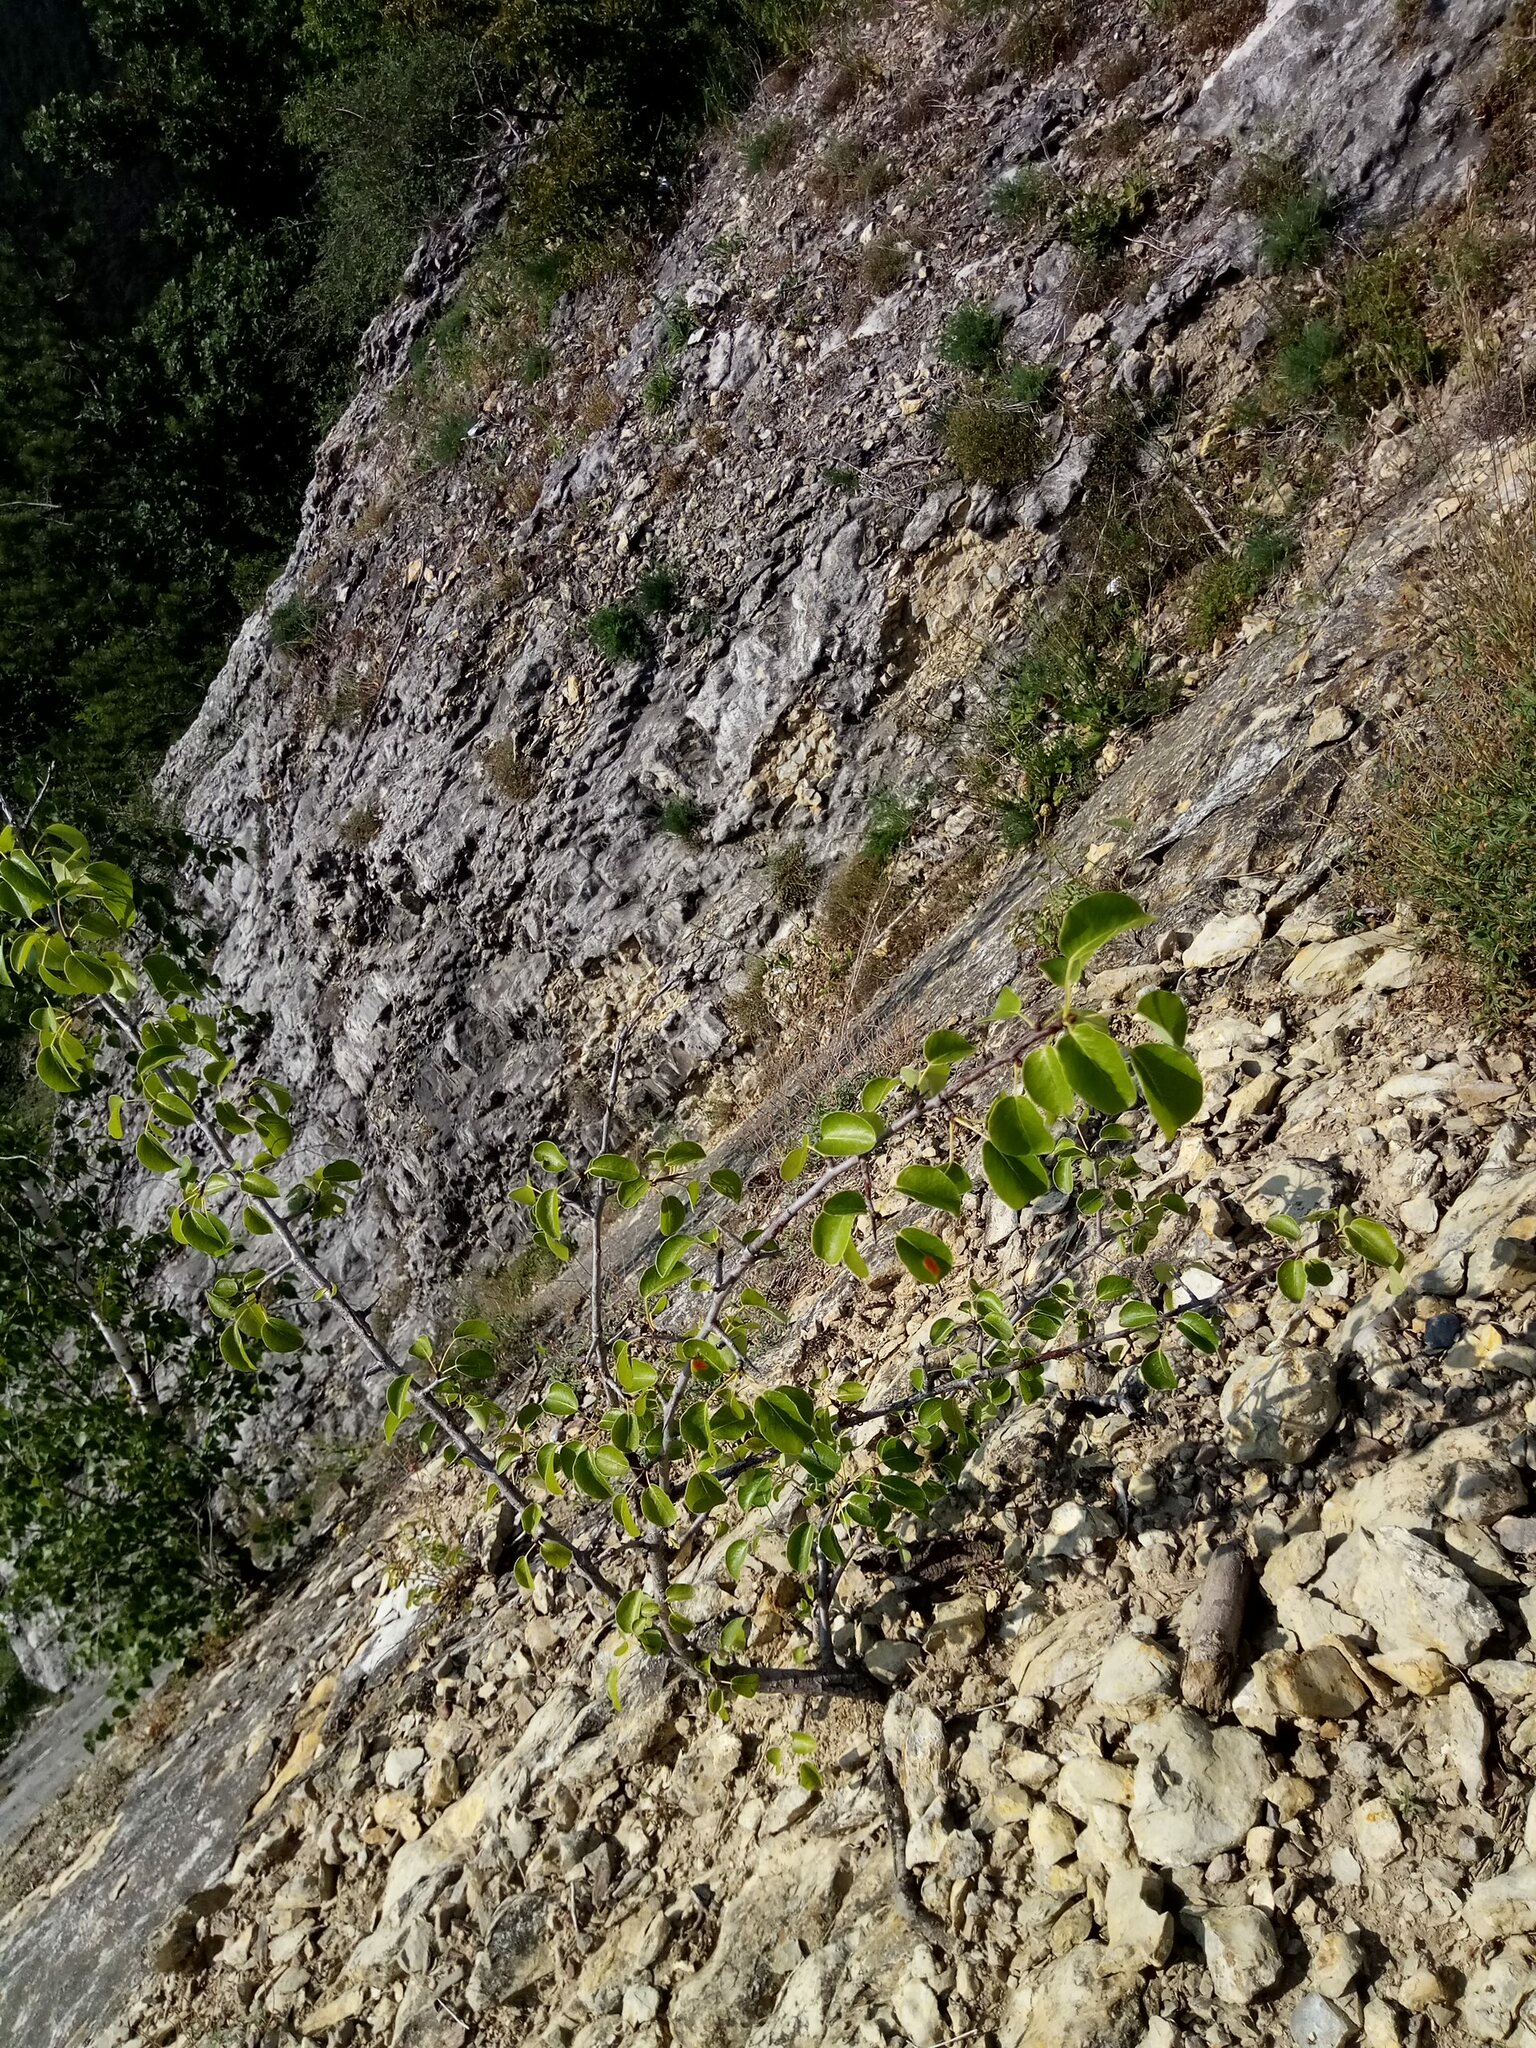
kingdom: Plantae
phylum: Tracheophyta
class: Magnoliopsida
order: Rosales
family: Rosaceae
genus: Pyrus
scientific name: Pyrus
